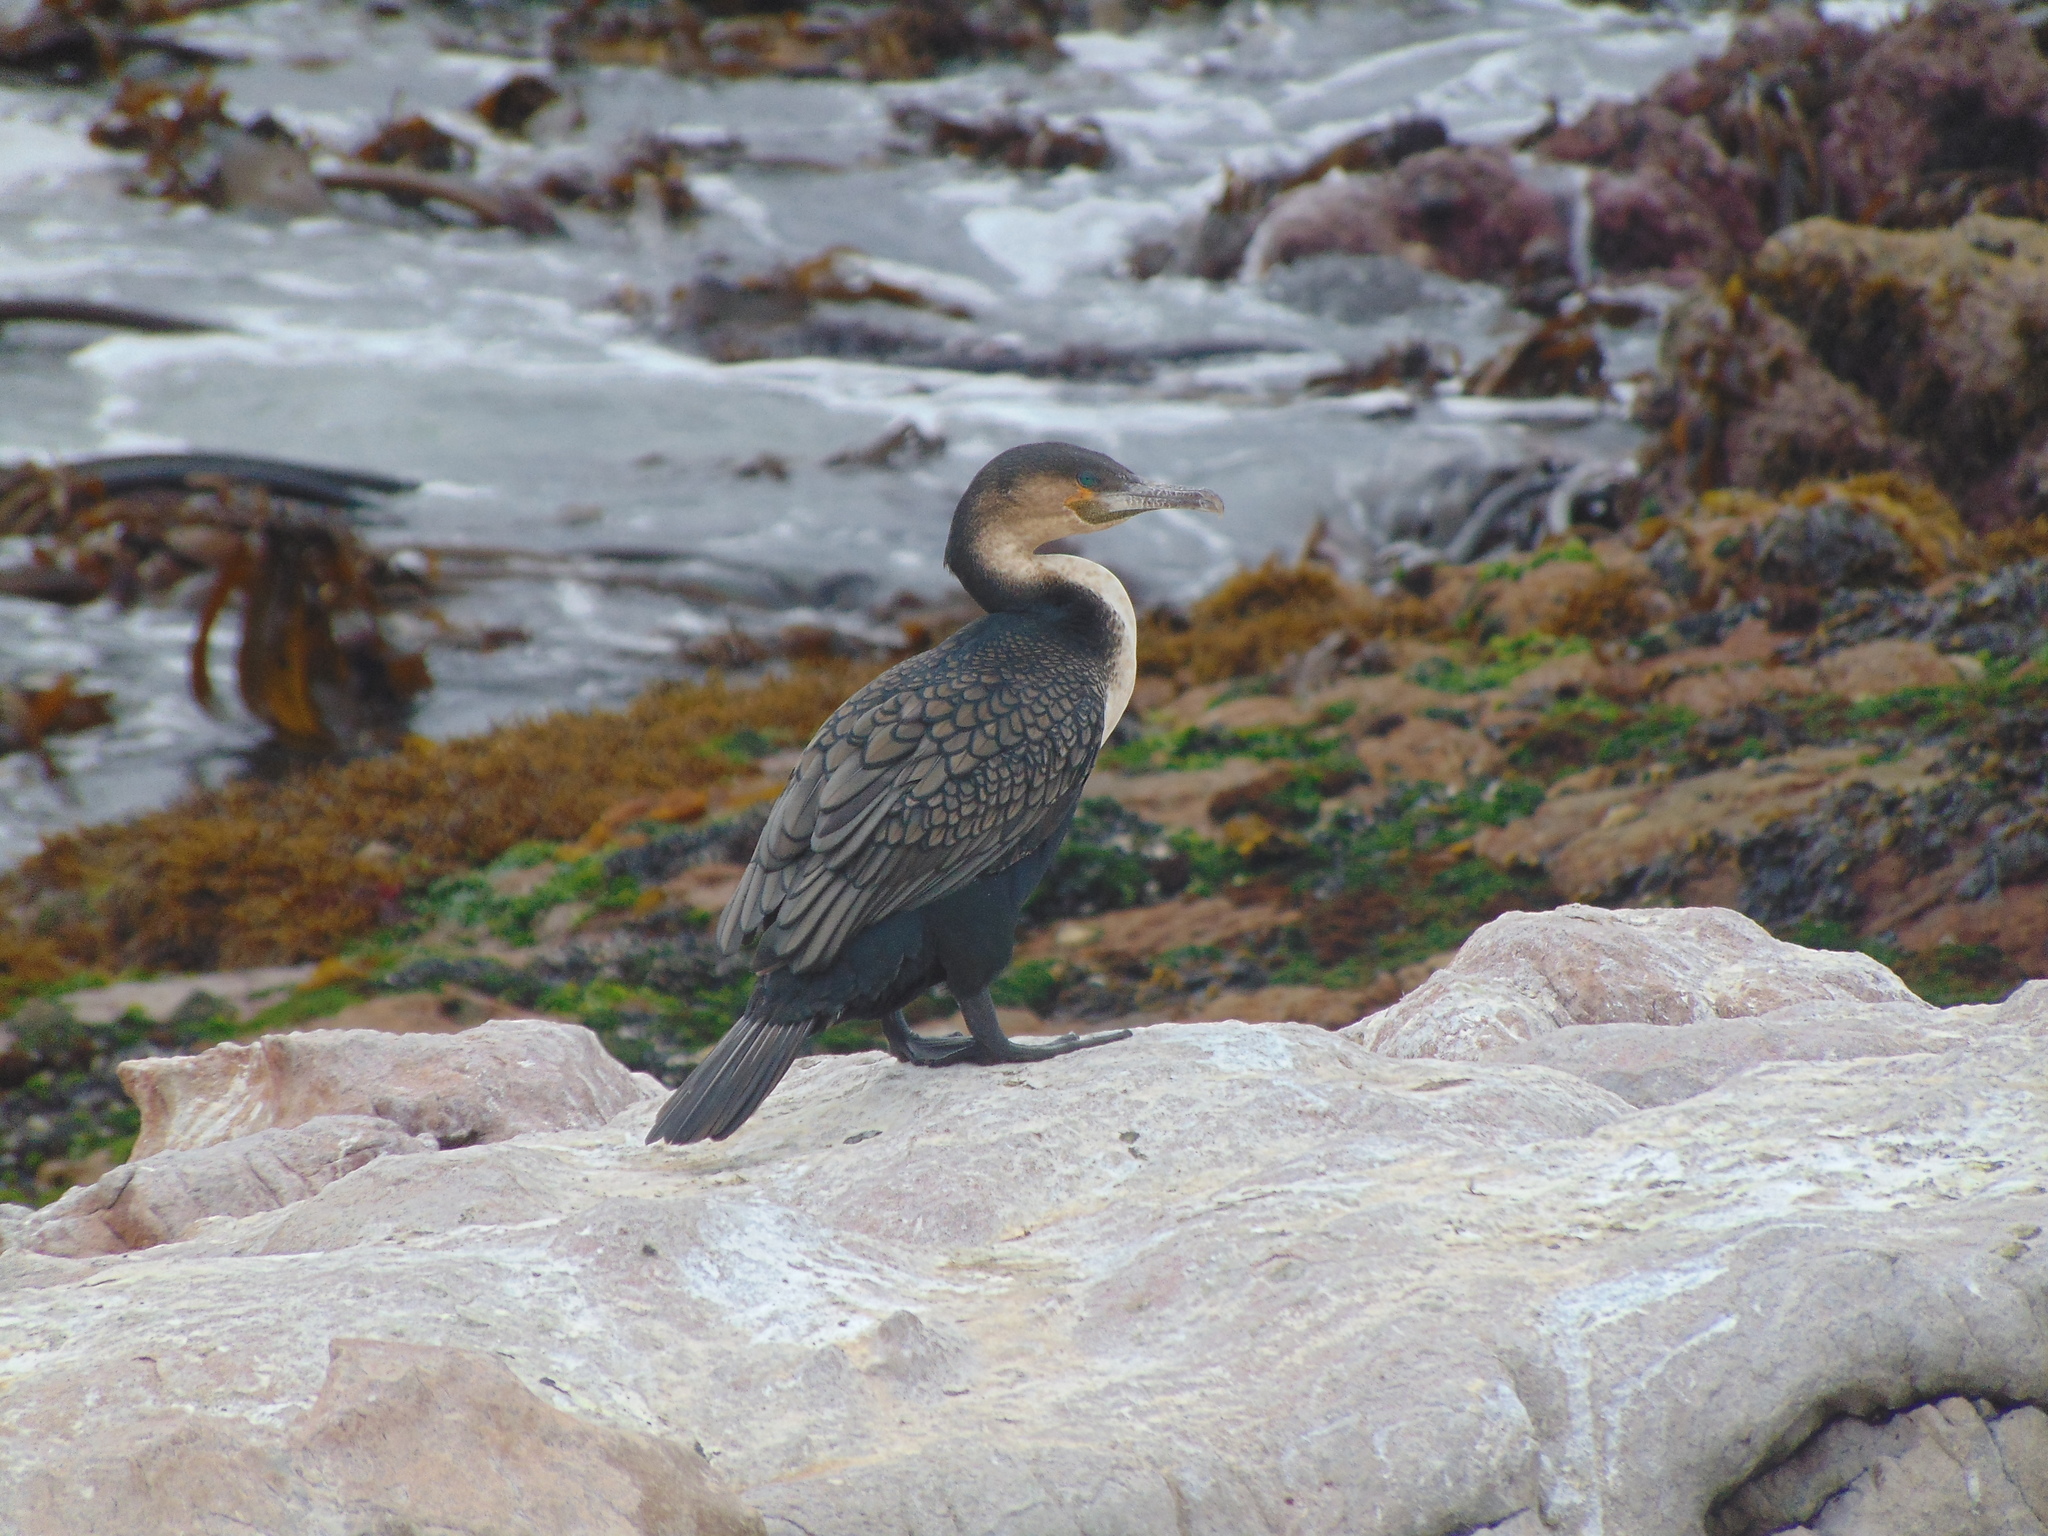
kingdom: Animalia
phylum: Chordata
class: Aves
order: Suliformes
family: Phalacrocoracidae
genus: Phalacrocorax
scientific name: Phalacrocorax carbo
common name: Great cormorant
